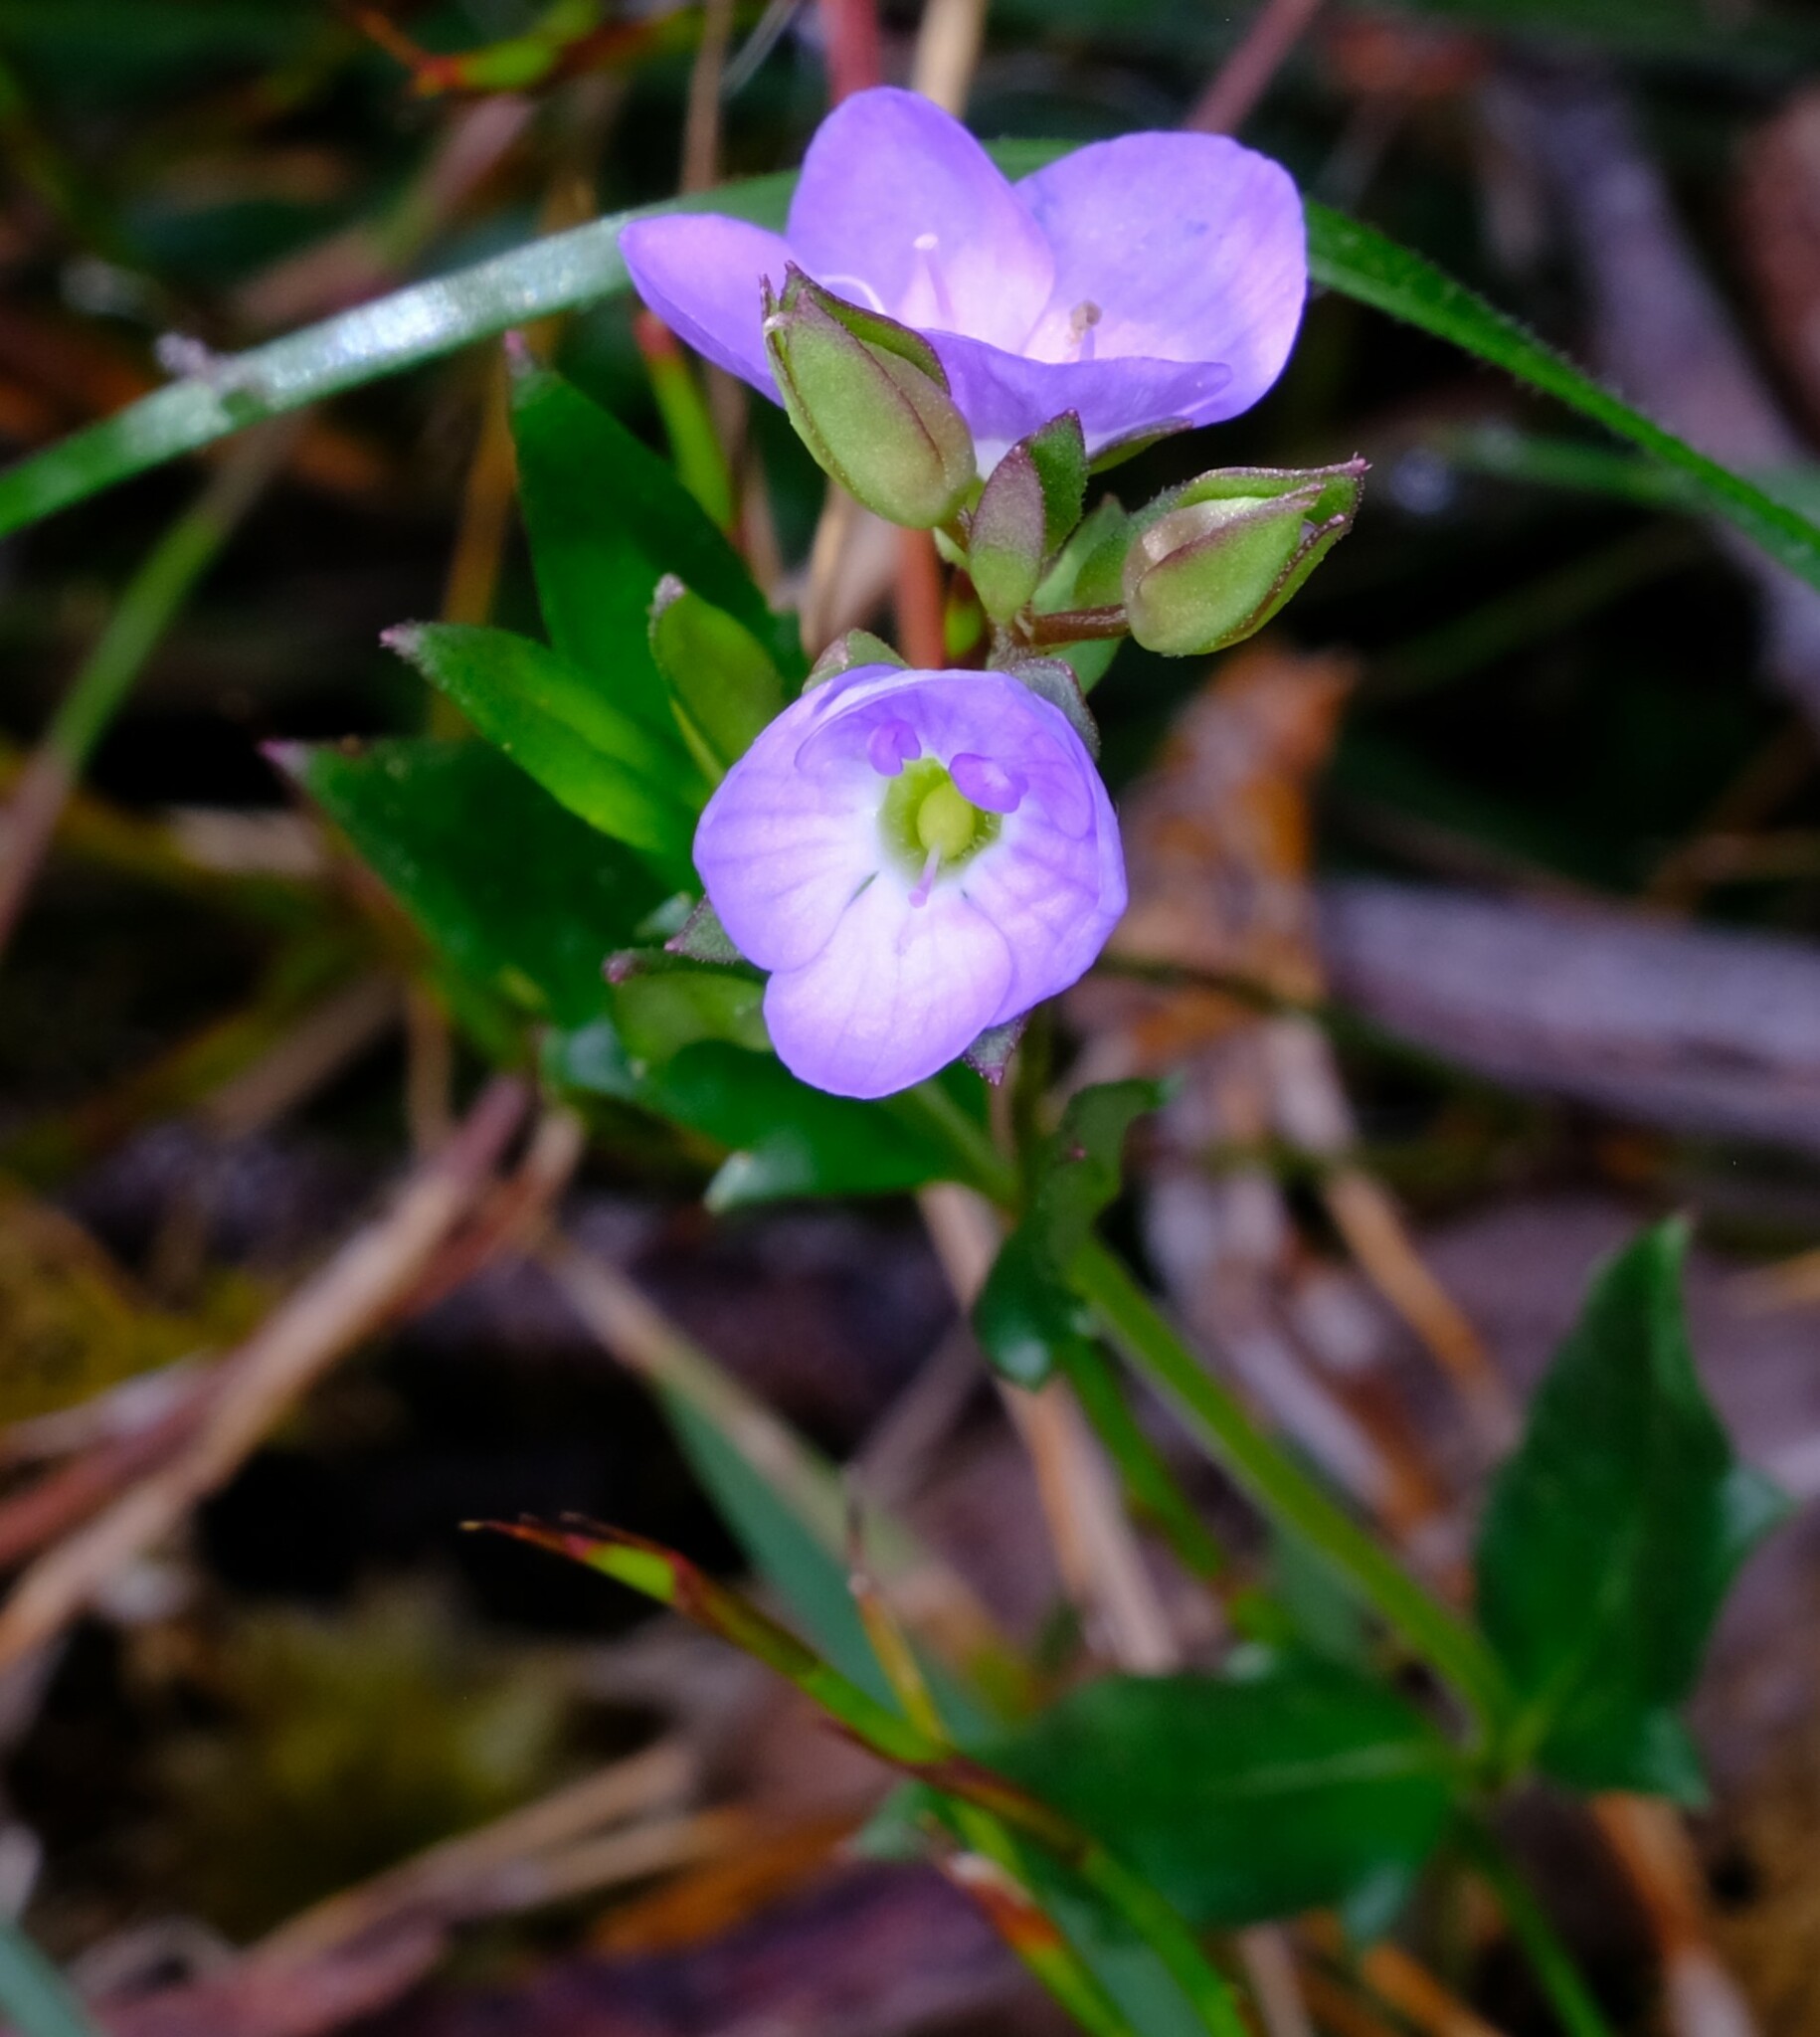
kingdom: Plantae
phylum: Tracheophyta
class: Magnoliopsida
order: Lamiales
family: Plantaginaceae
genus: Veronica
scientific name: Veronica gracilis
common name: Slender speedwell
